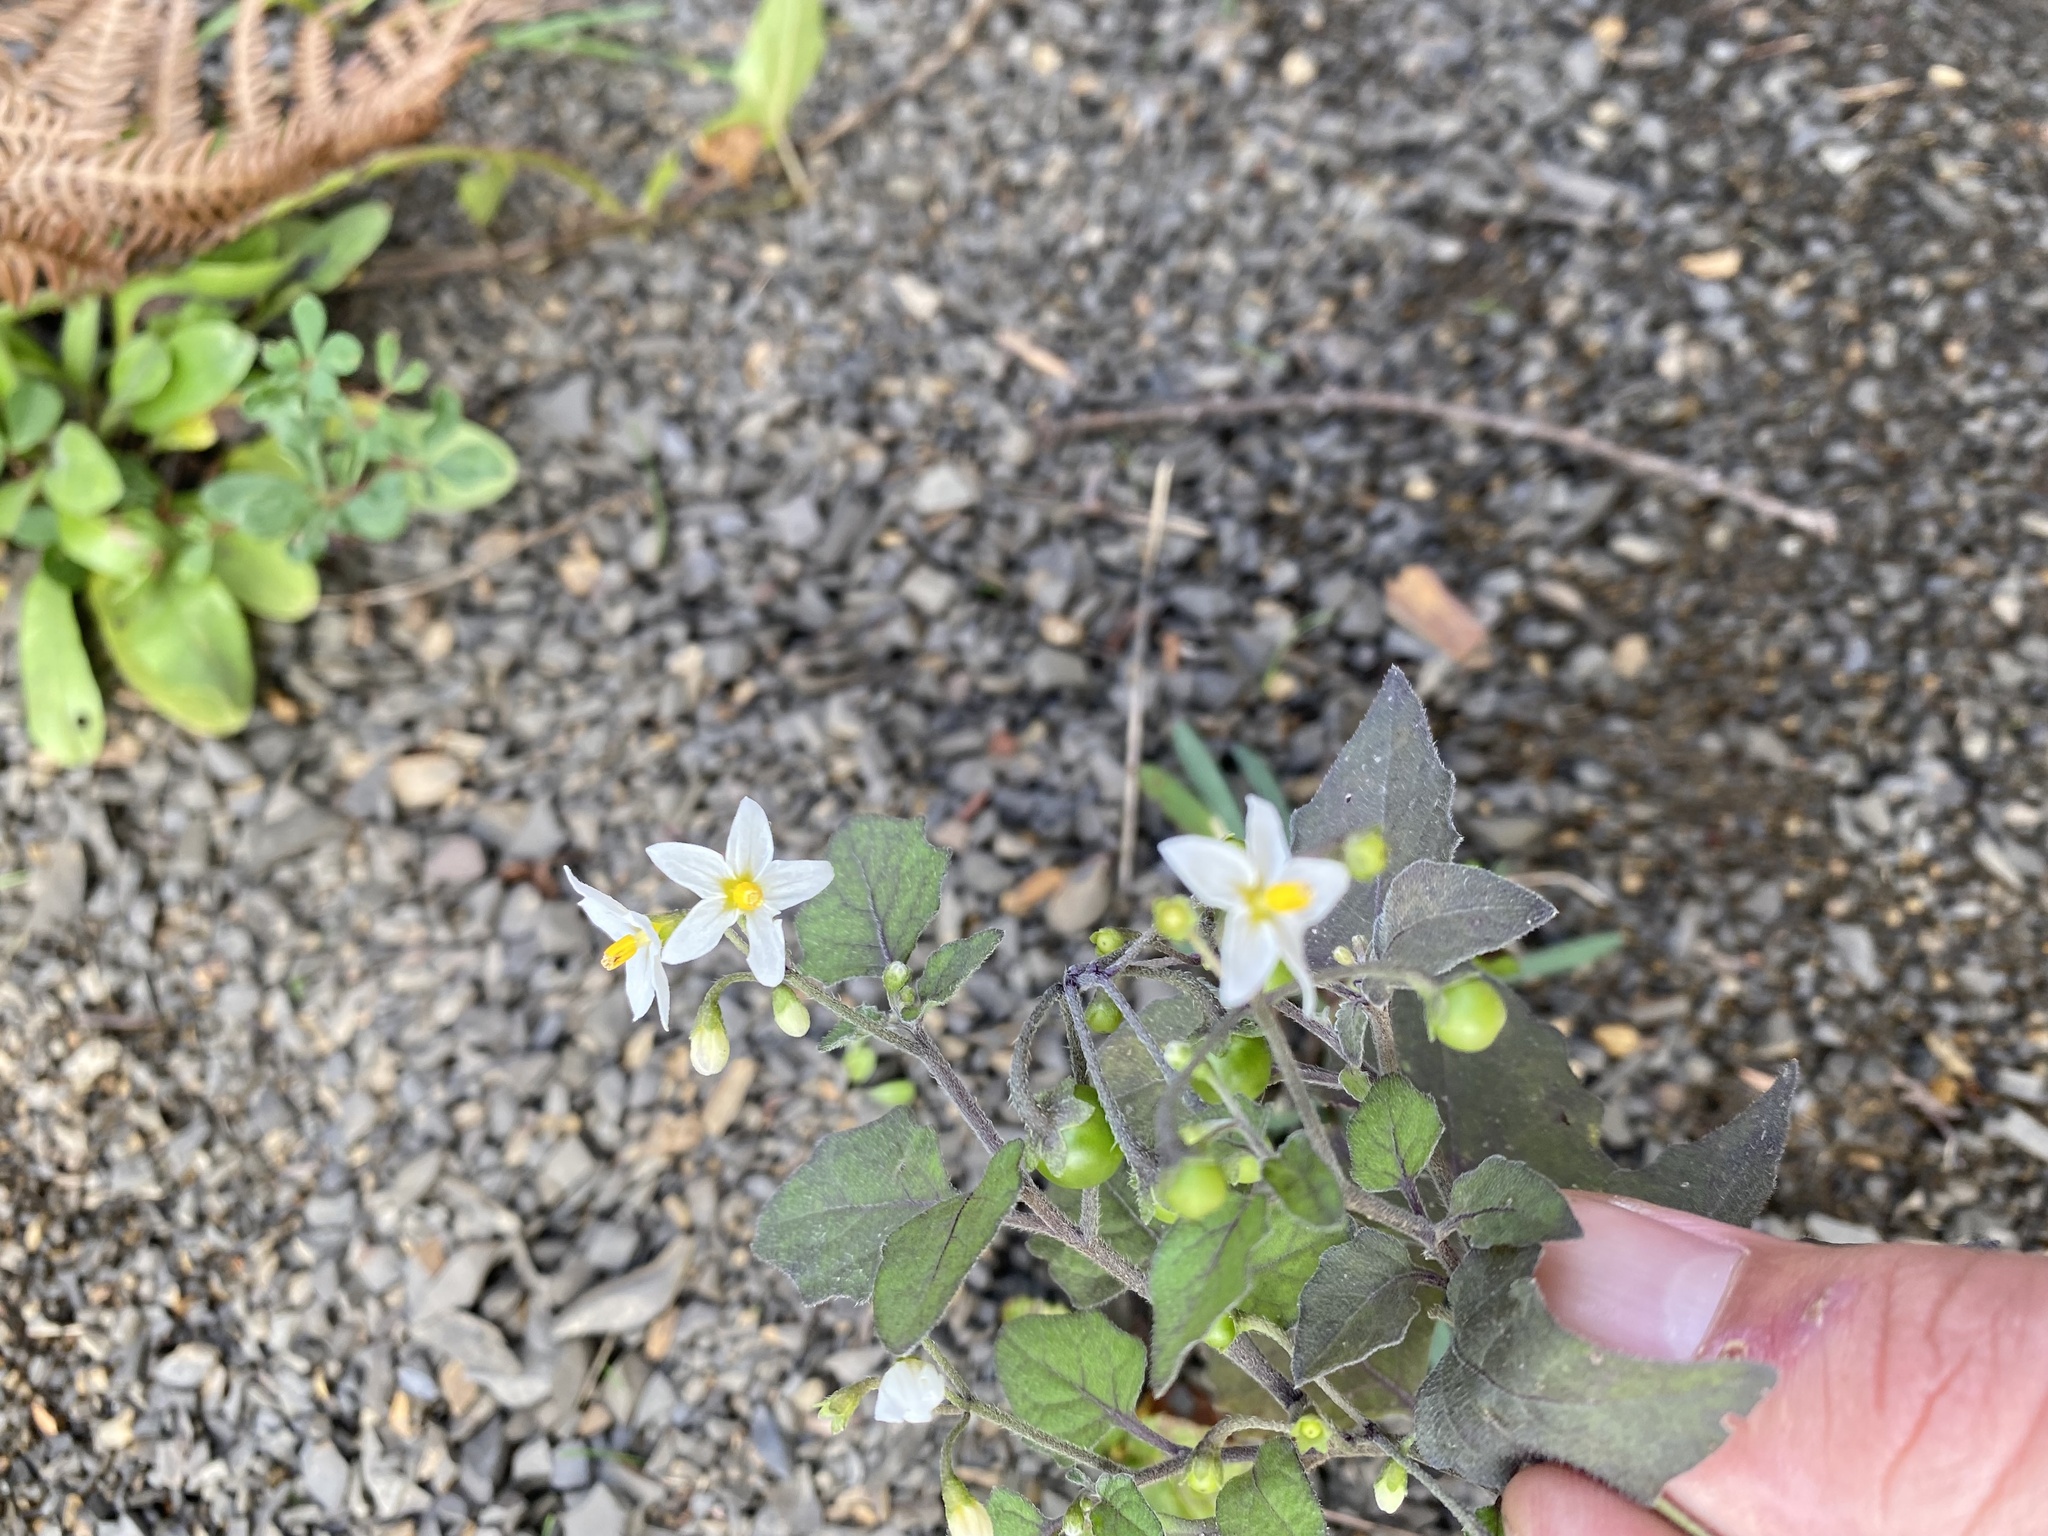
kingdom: Plantae
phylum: Tracheophyta
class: Magnoliopsida
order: Solanales
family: Solanaceae
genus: Solanum
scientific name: Solanum nigrum
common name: Black nightshade
